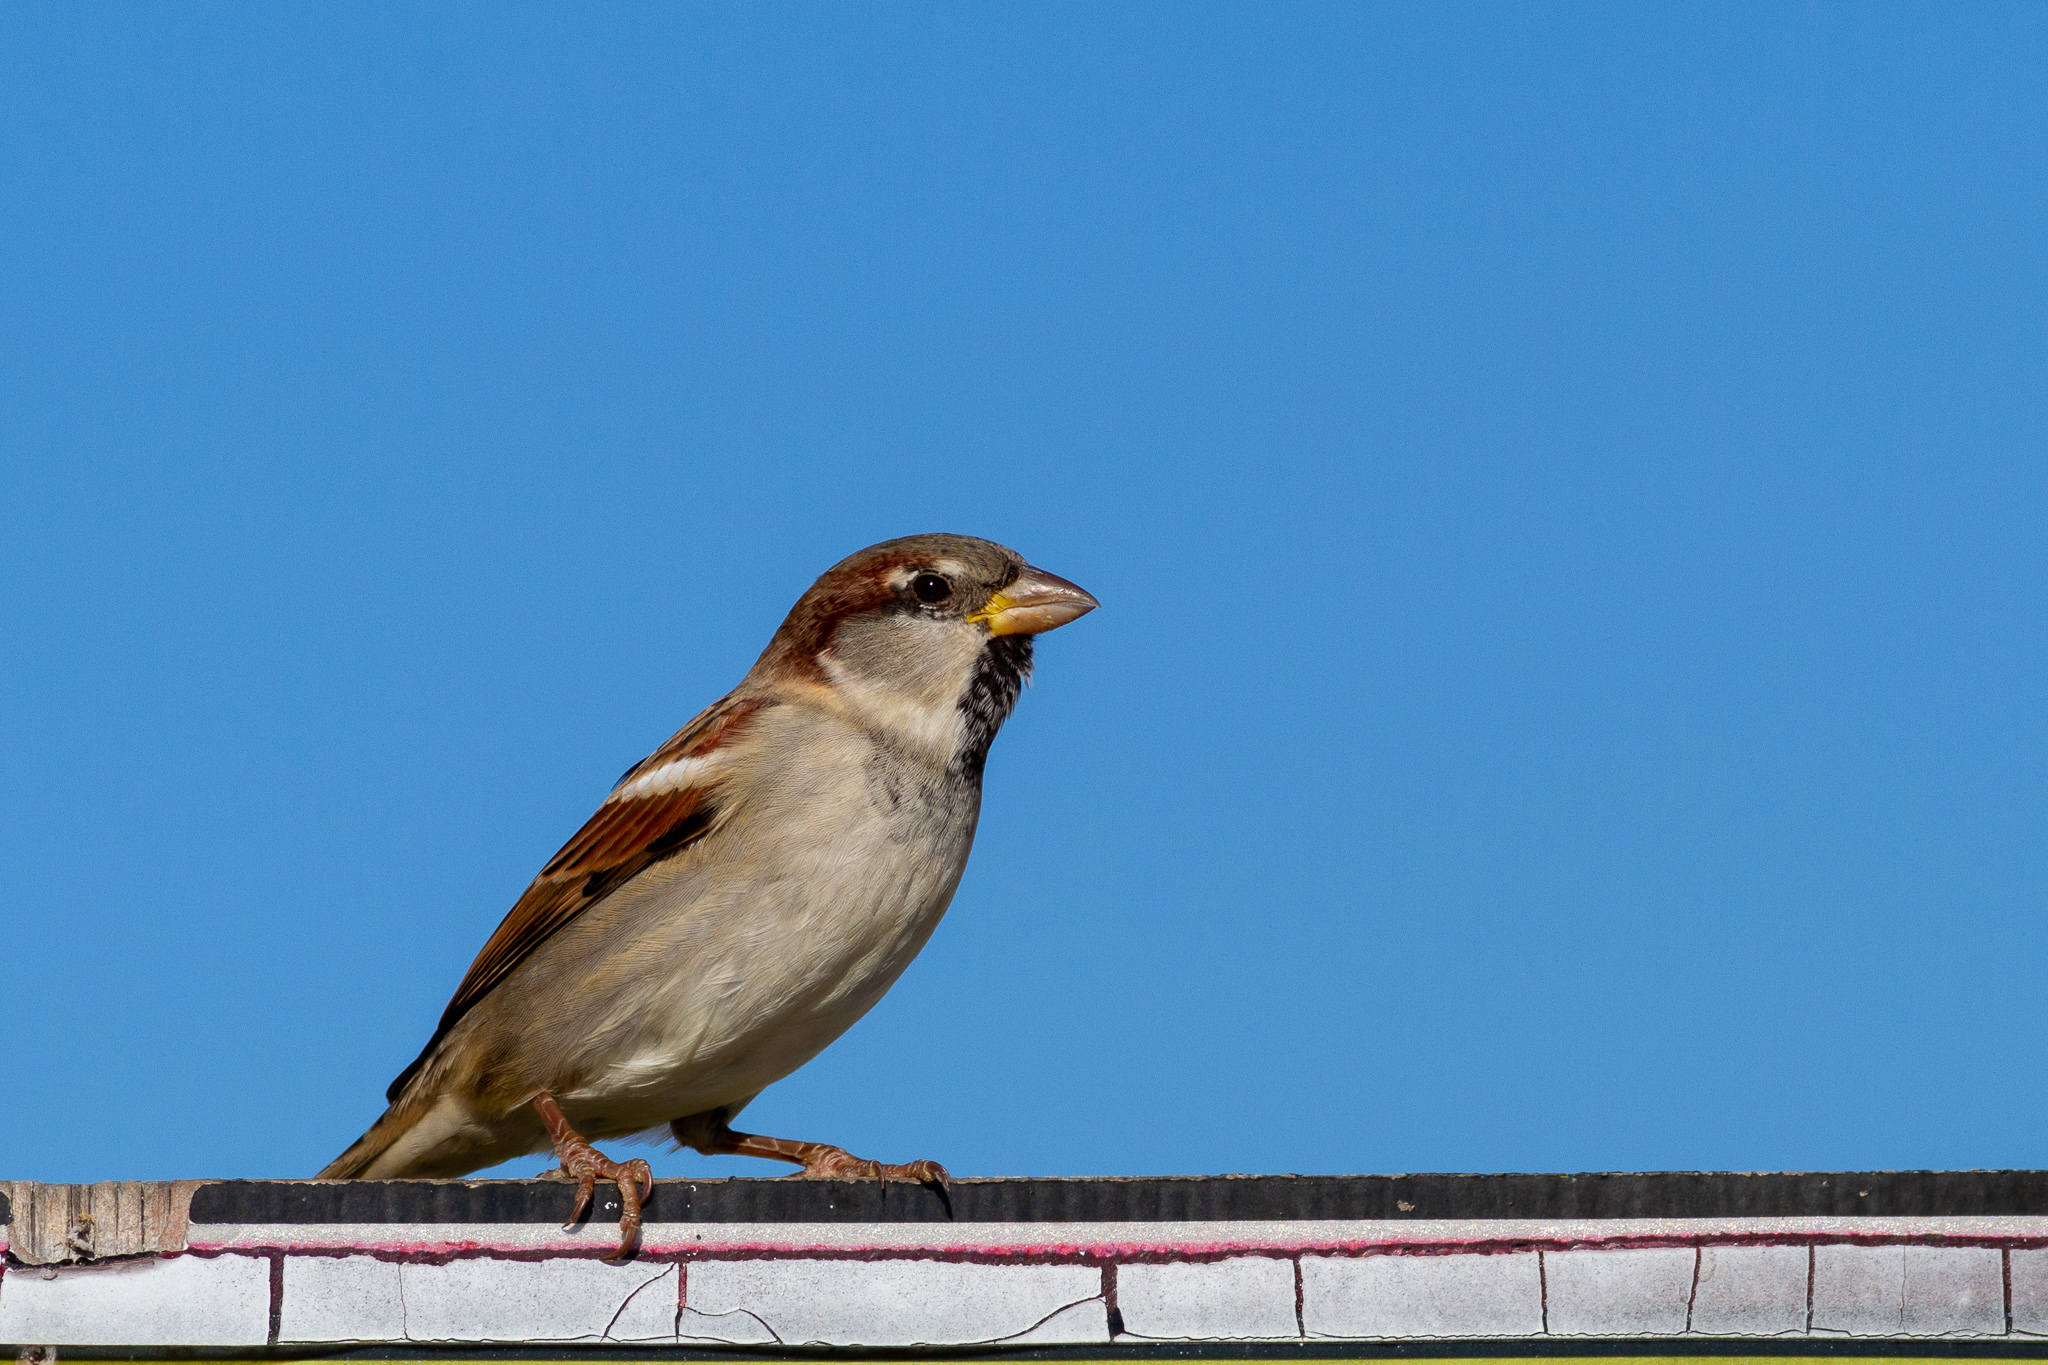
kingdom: Animalia
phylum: Chordata
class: Aves
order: Passeriformes
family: Passeridae
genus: Passer
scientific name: Passer domesticus
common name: House sparrow
